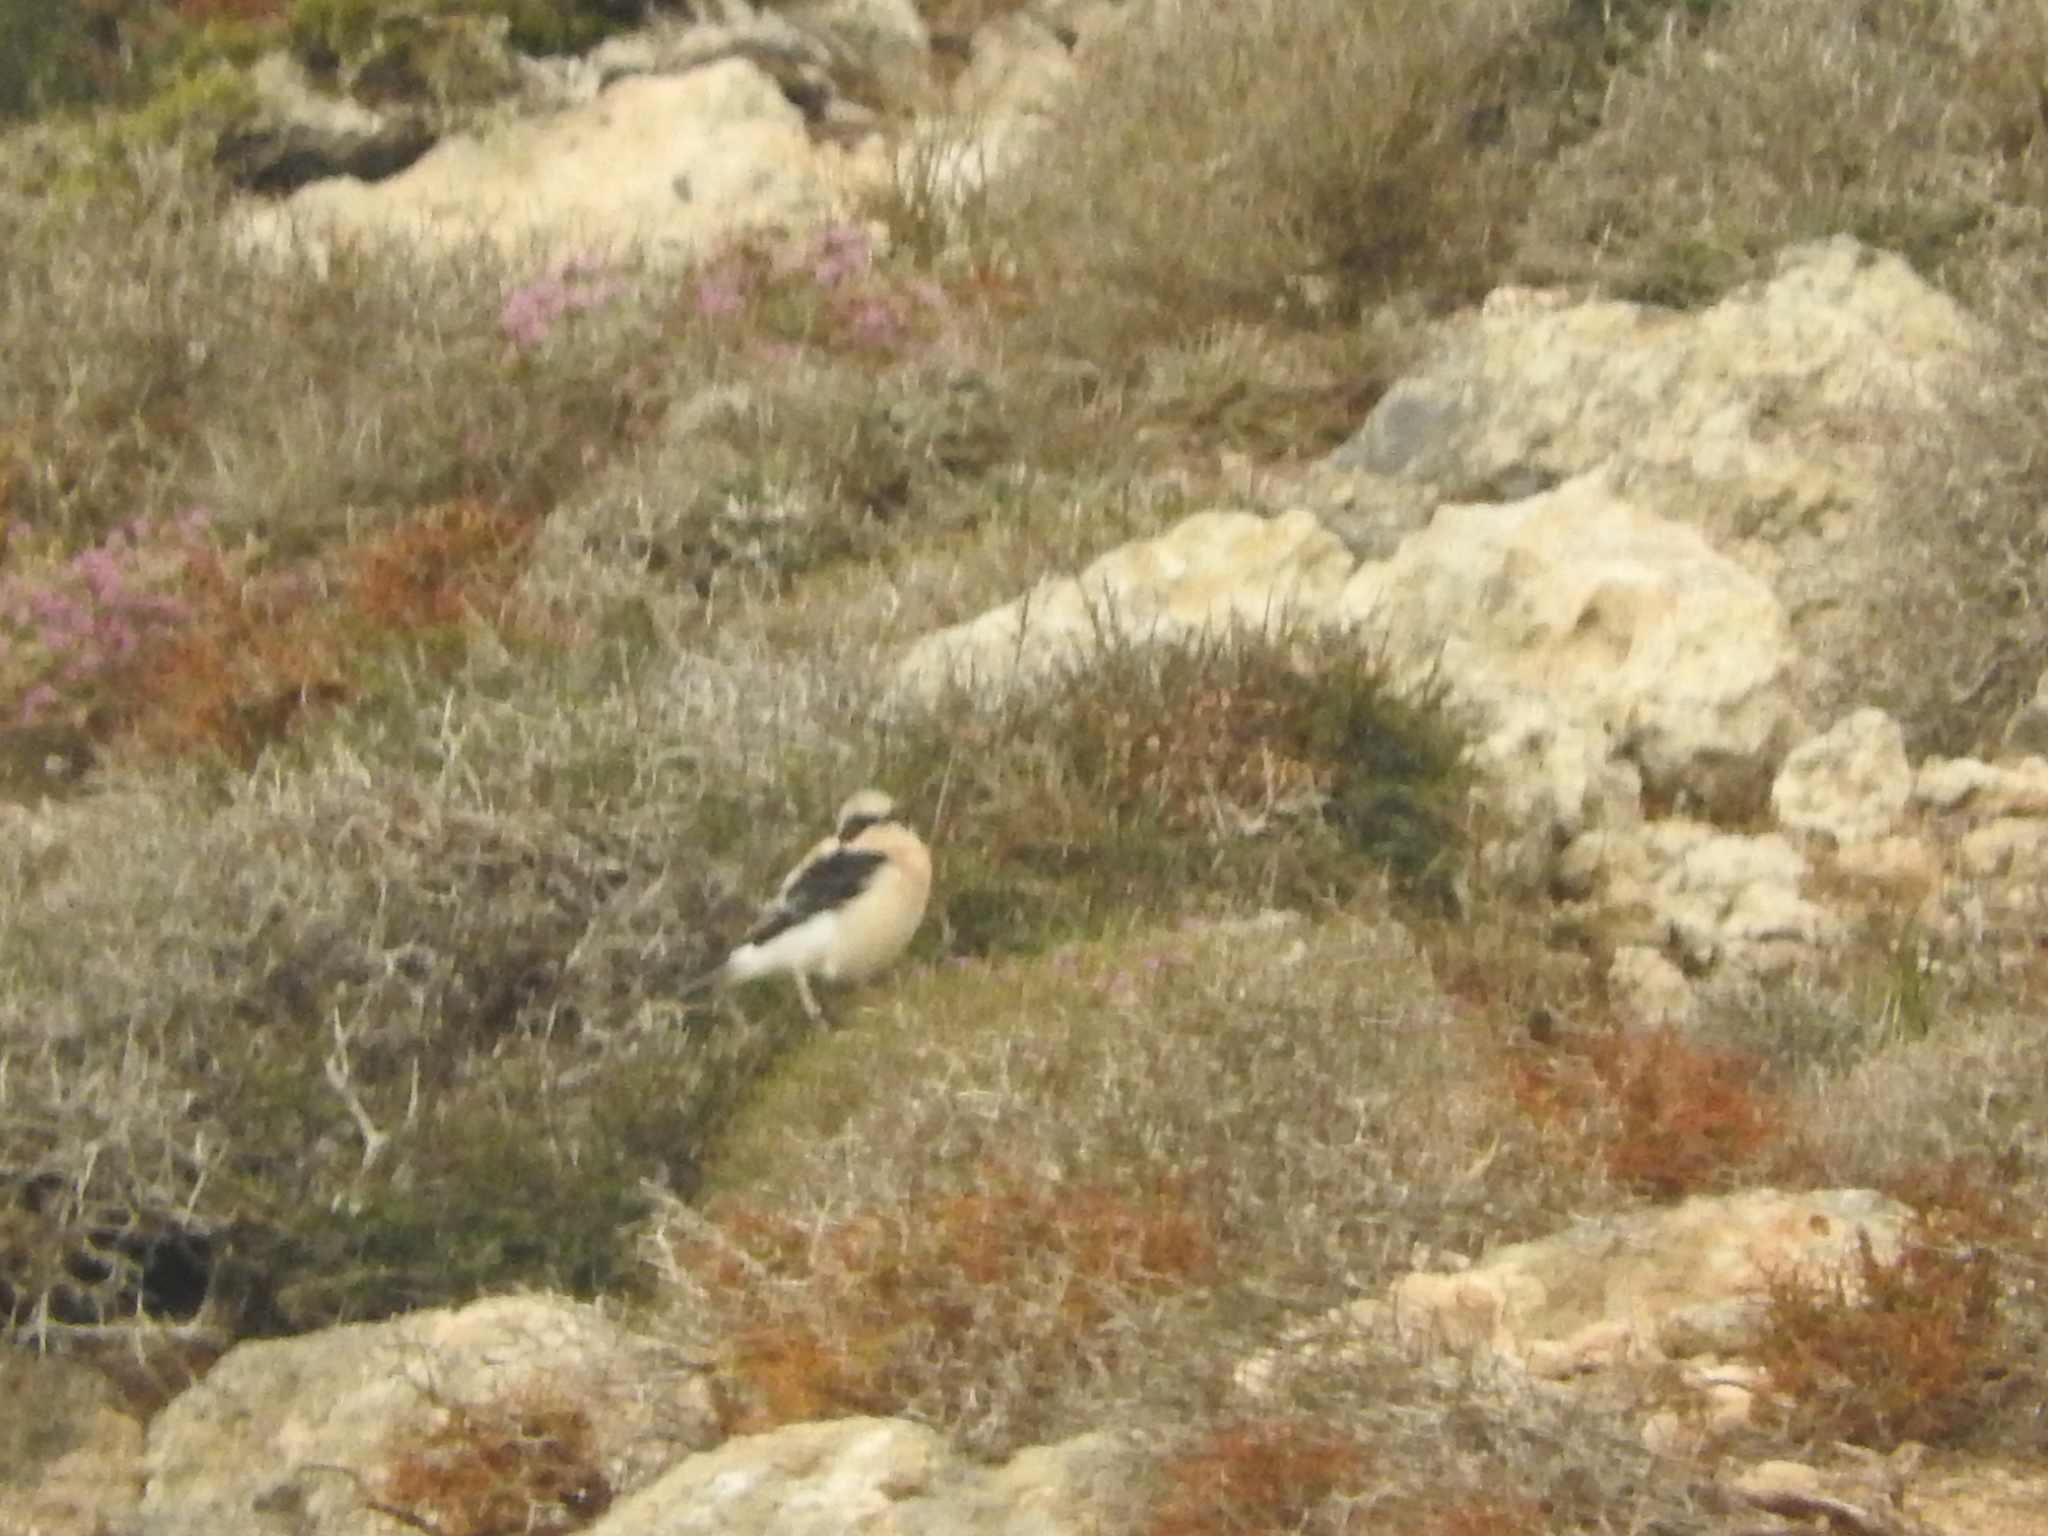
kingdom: Animalia
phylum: Chordata
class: Aves
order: Passeriformes
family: Muscicapidae
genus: Oenanthe
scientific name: Oenanthe hispanica
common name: Black-eared wheatear
